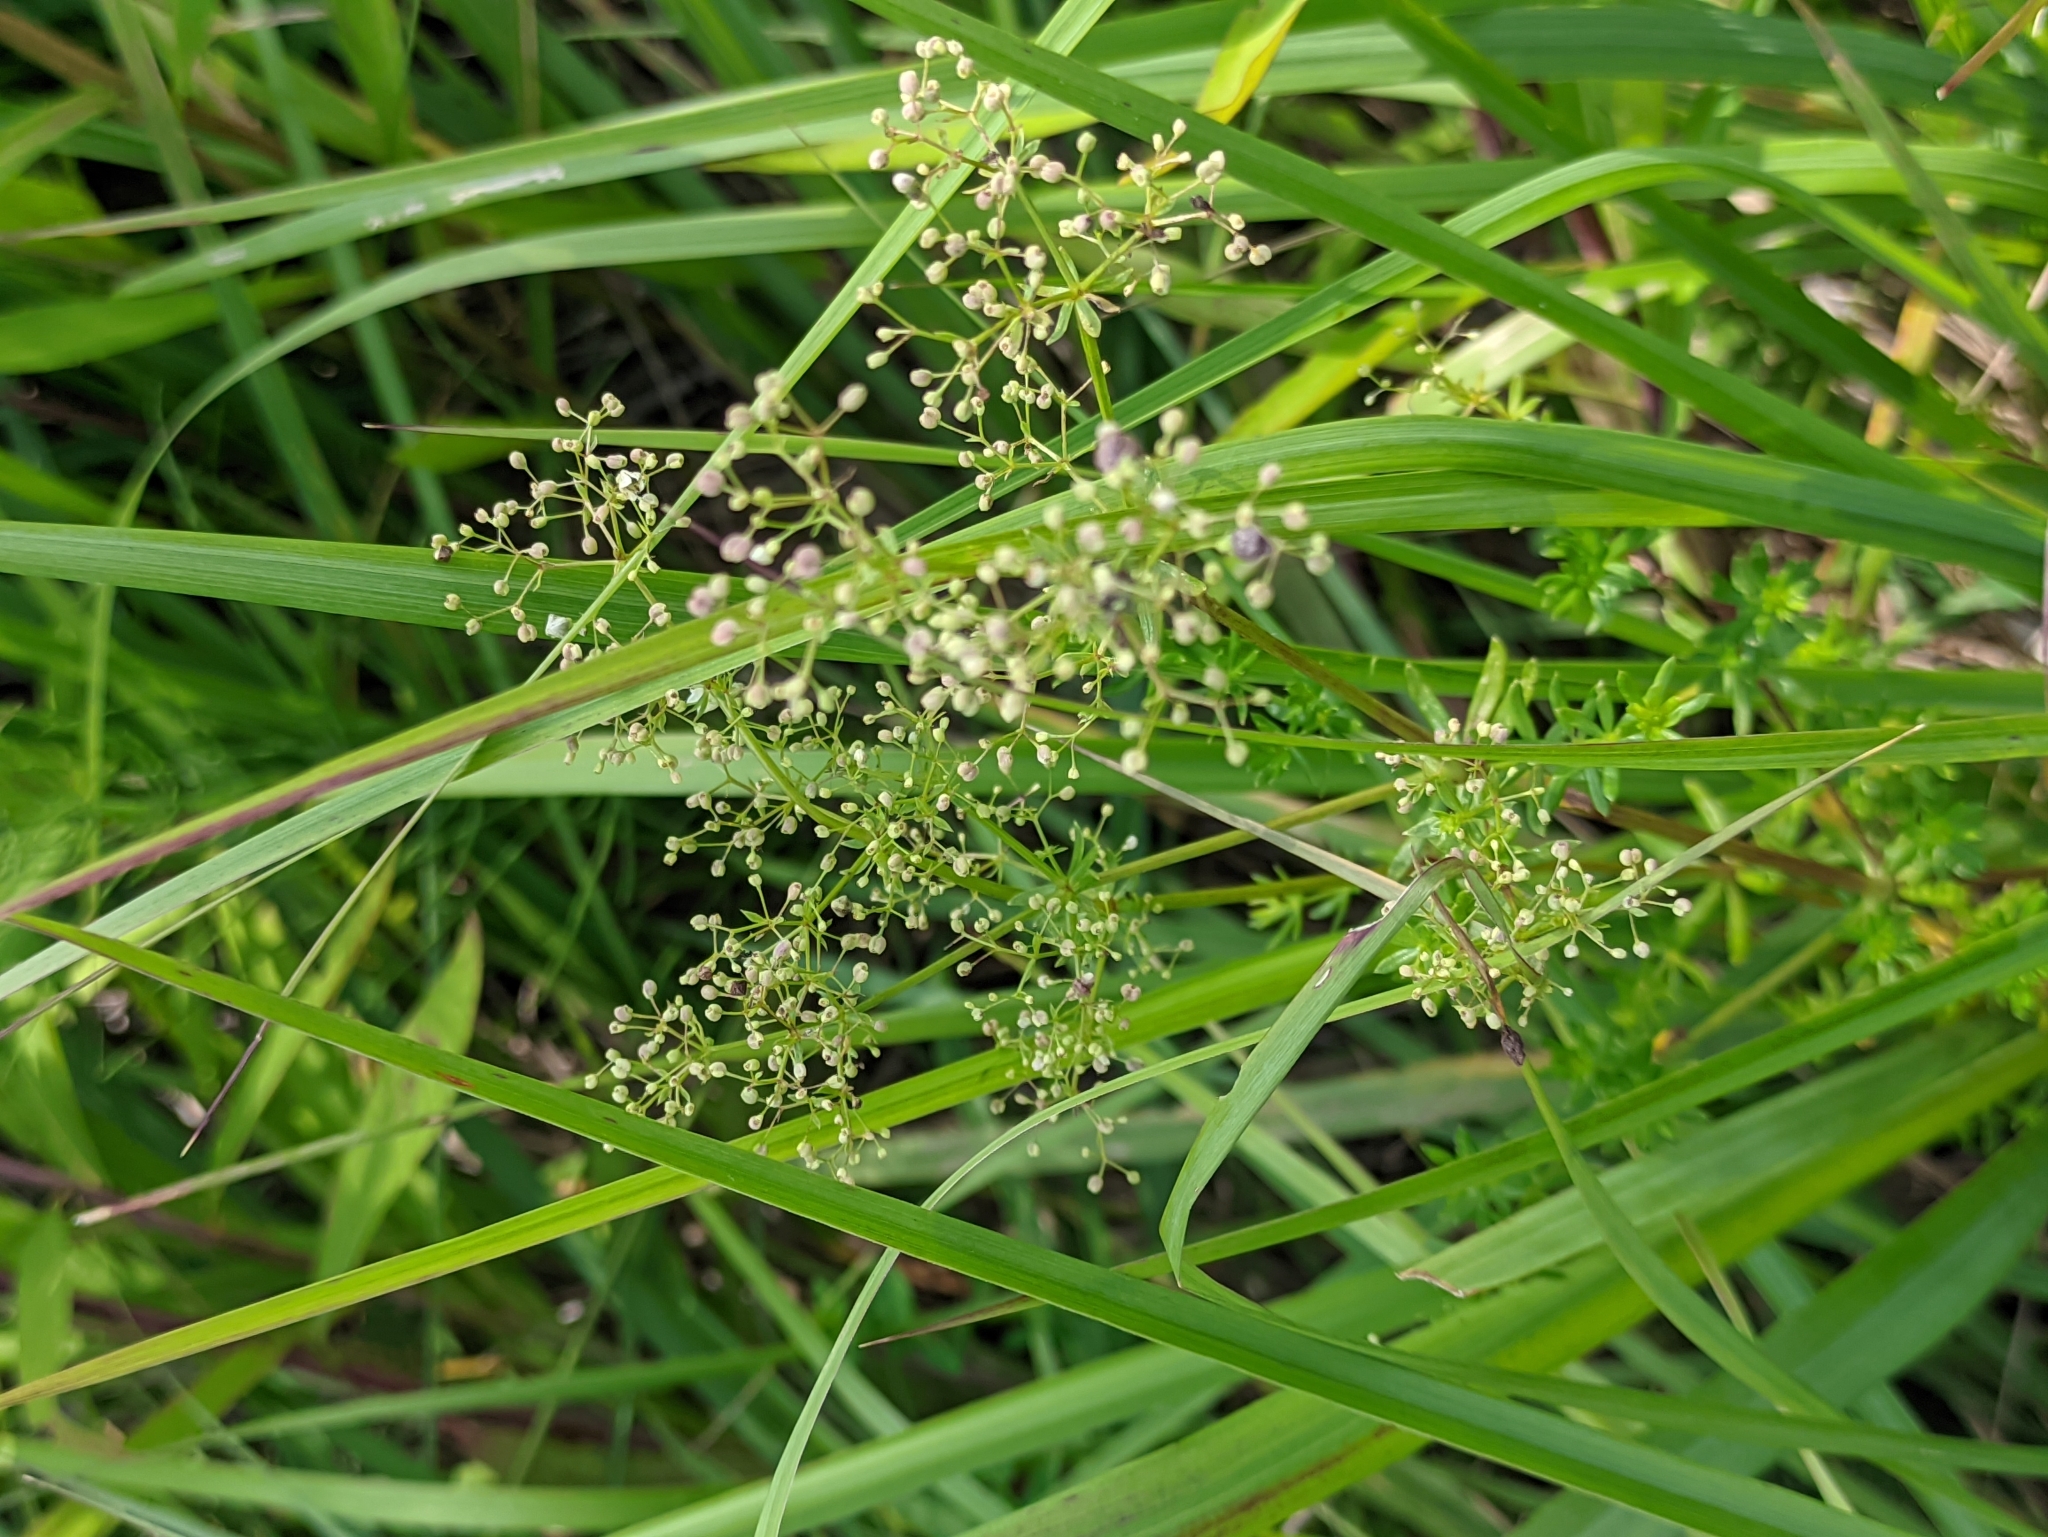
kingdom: Plantae
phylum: Tracheophyta
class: Magnoliopsida
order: Gentianales
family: Rubiaceae
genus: Galium
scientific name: Galium mollugo
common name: Hedge bedstraw
